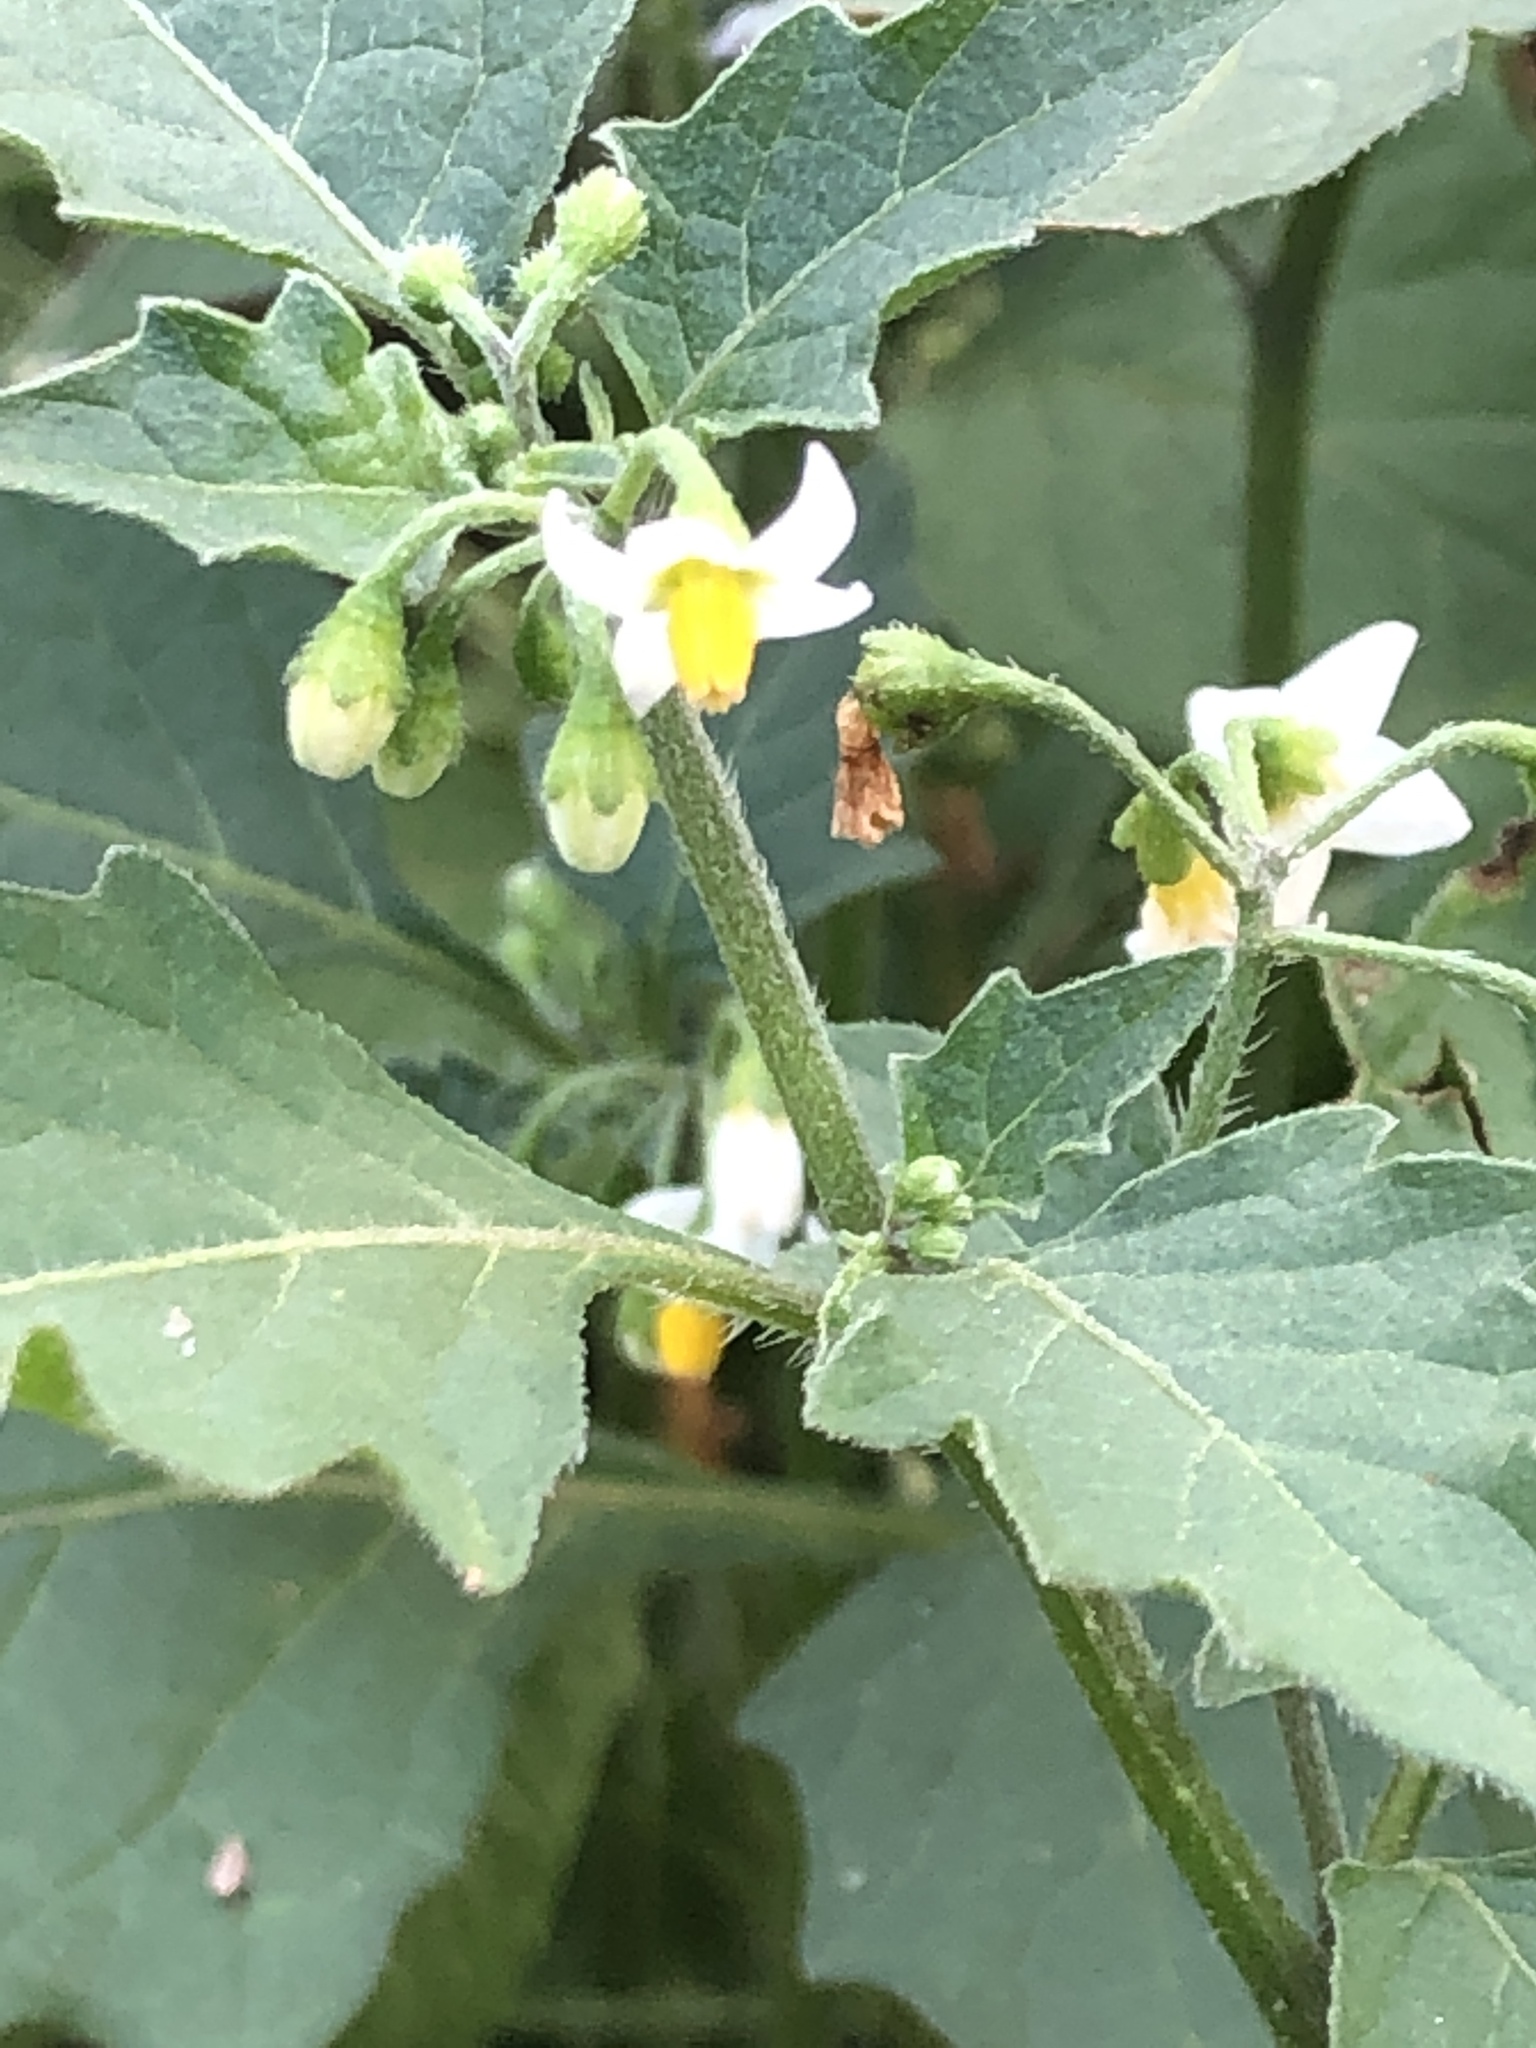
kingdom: Plantae
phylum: Tracheophyta
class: Magnoliopsida
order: Solanales
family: Solanaceae
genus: Solanum
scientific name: Solanum nigrum
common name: Black nightshade
